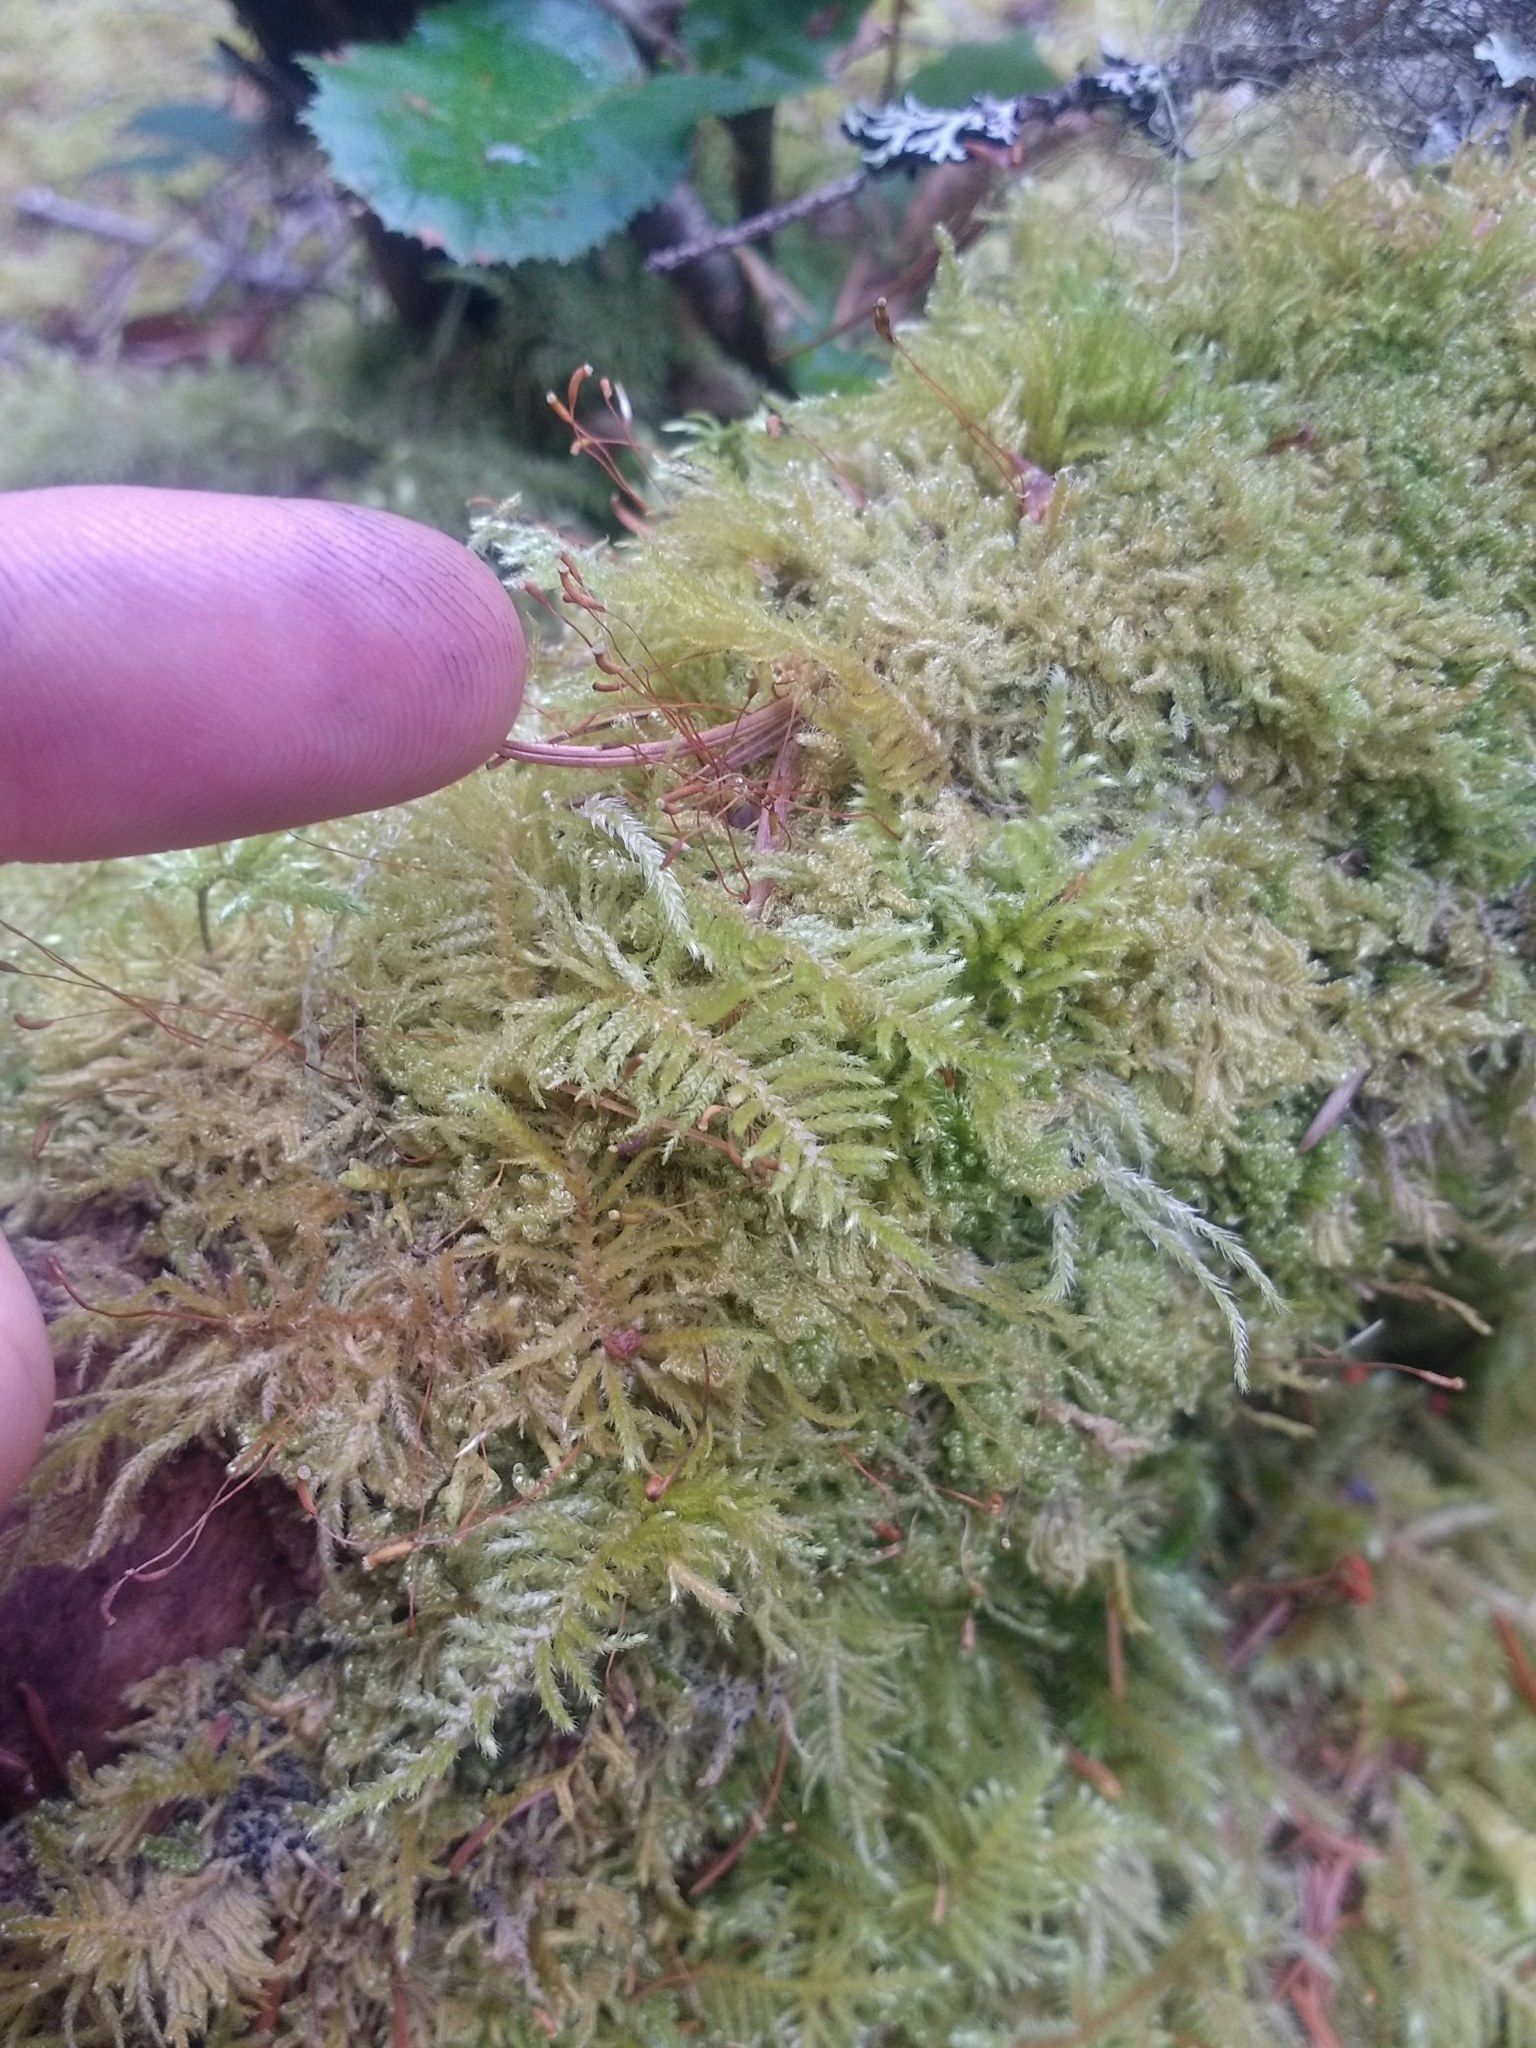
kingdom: Plantae
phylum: Bryophyta
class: Bryopsida
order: Hypnales
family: Stereodontaceae
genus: Stereodon
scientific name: Stereodon subimponens
